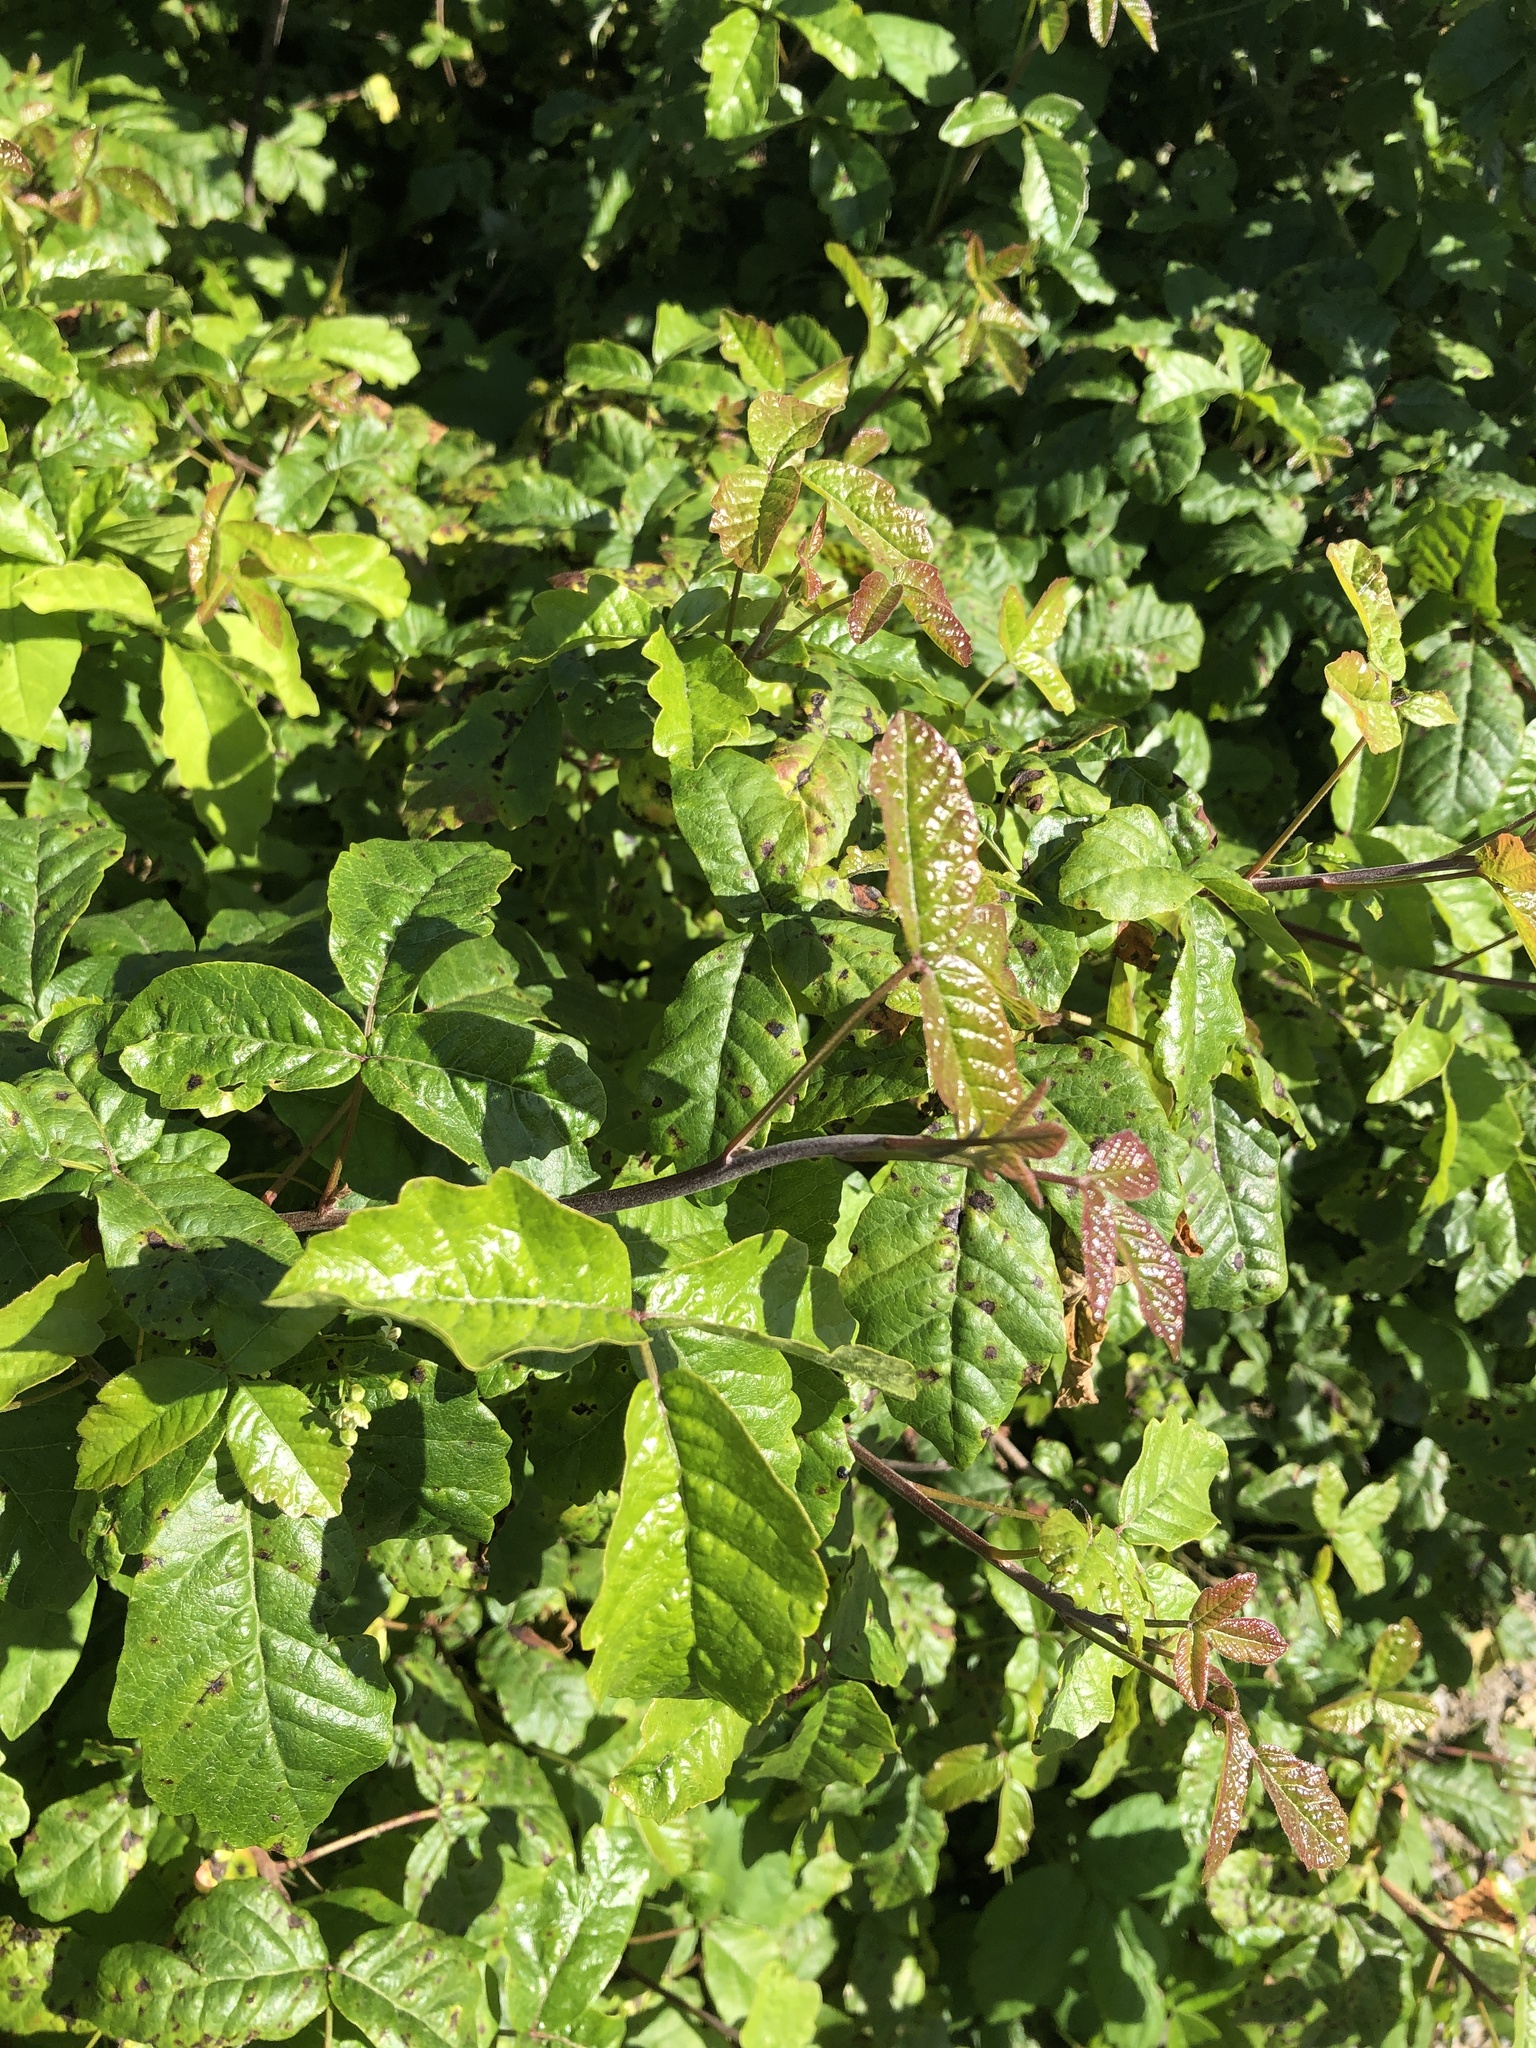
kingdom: Plantae
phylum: Tracheophyta
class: Magnoliopsida
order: Sapindales
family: Anacardiaceae
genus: Toxicodendron
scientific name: Toxicodendron diversilobum
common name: Pacific poison-oak
